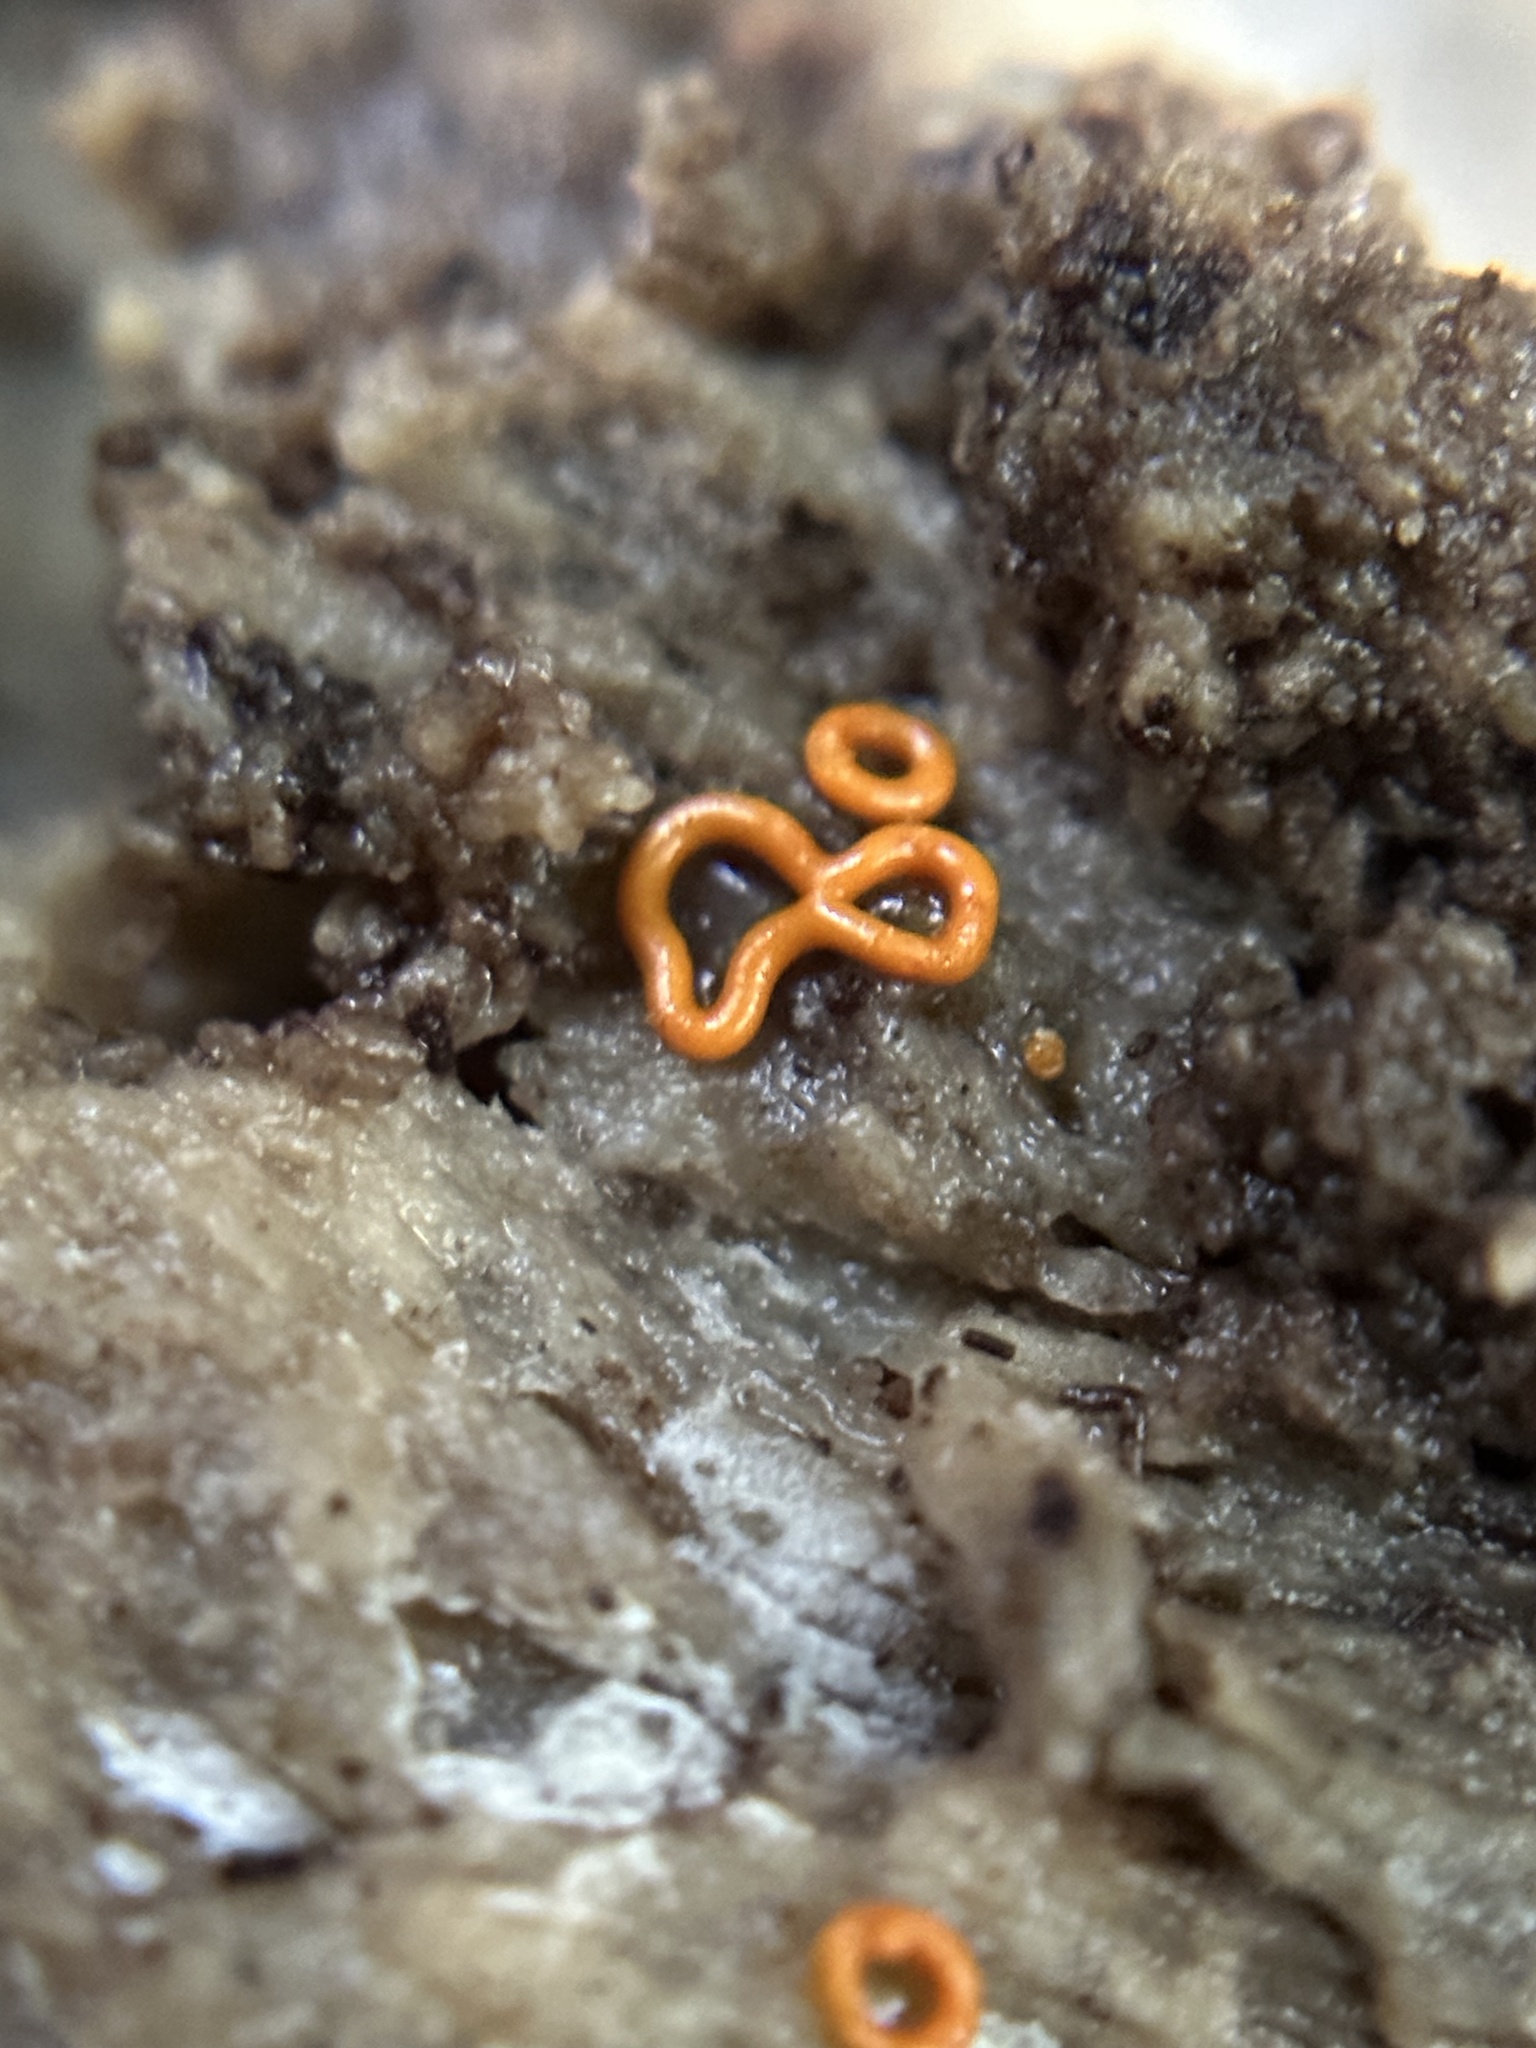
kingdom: Protozoa
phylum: Mycetozoa
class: Myxomycetes
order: Trichiales
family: Arcyriaceae
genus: Hemitrichia
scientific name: Hemitrichia serpula
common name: Pretzel slime mold
